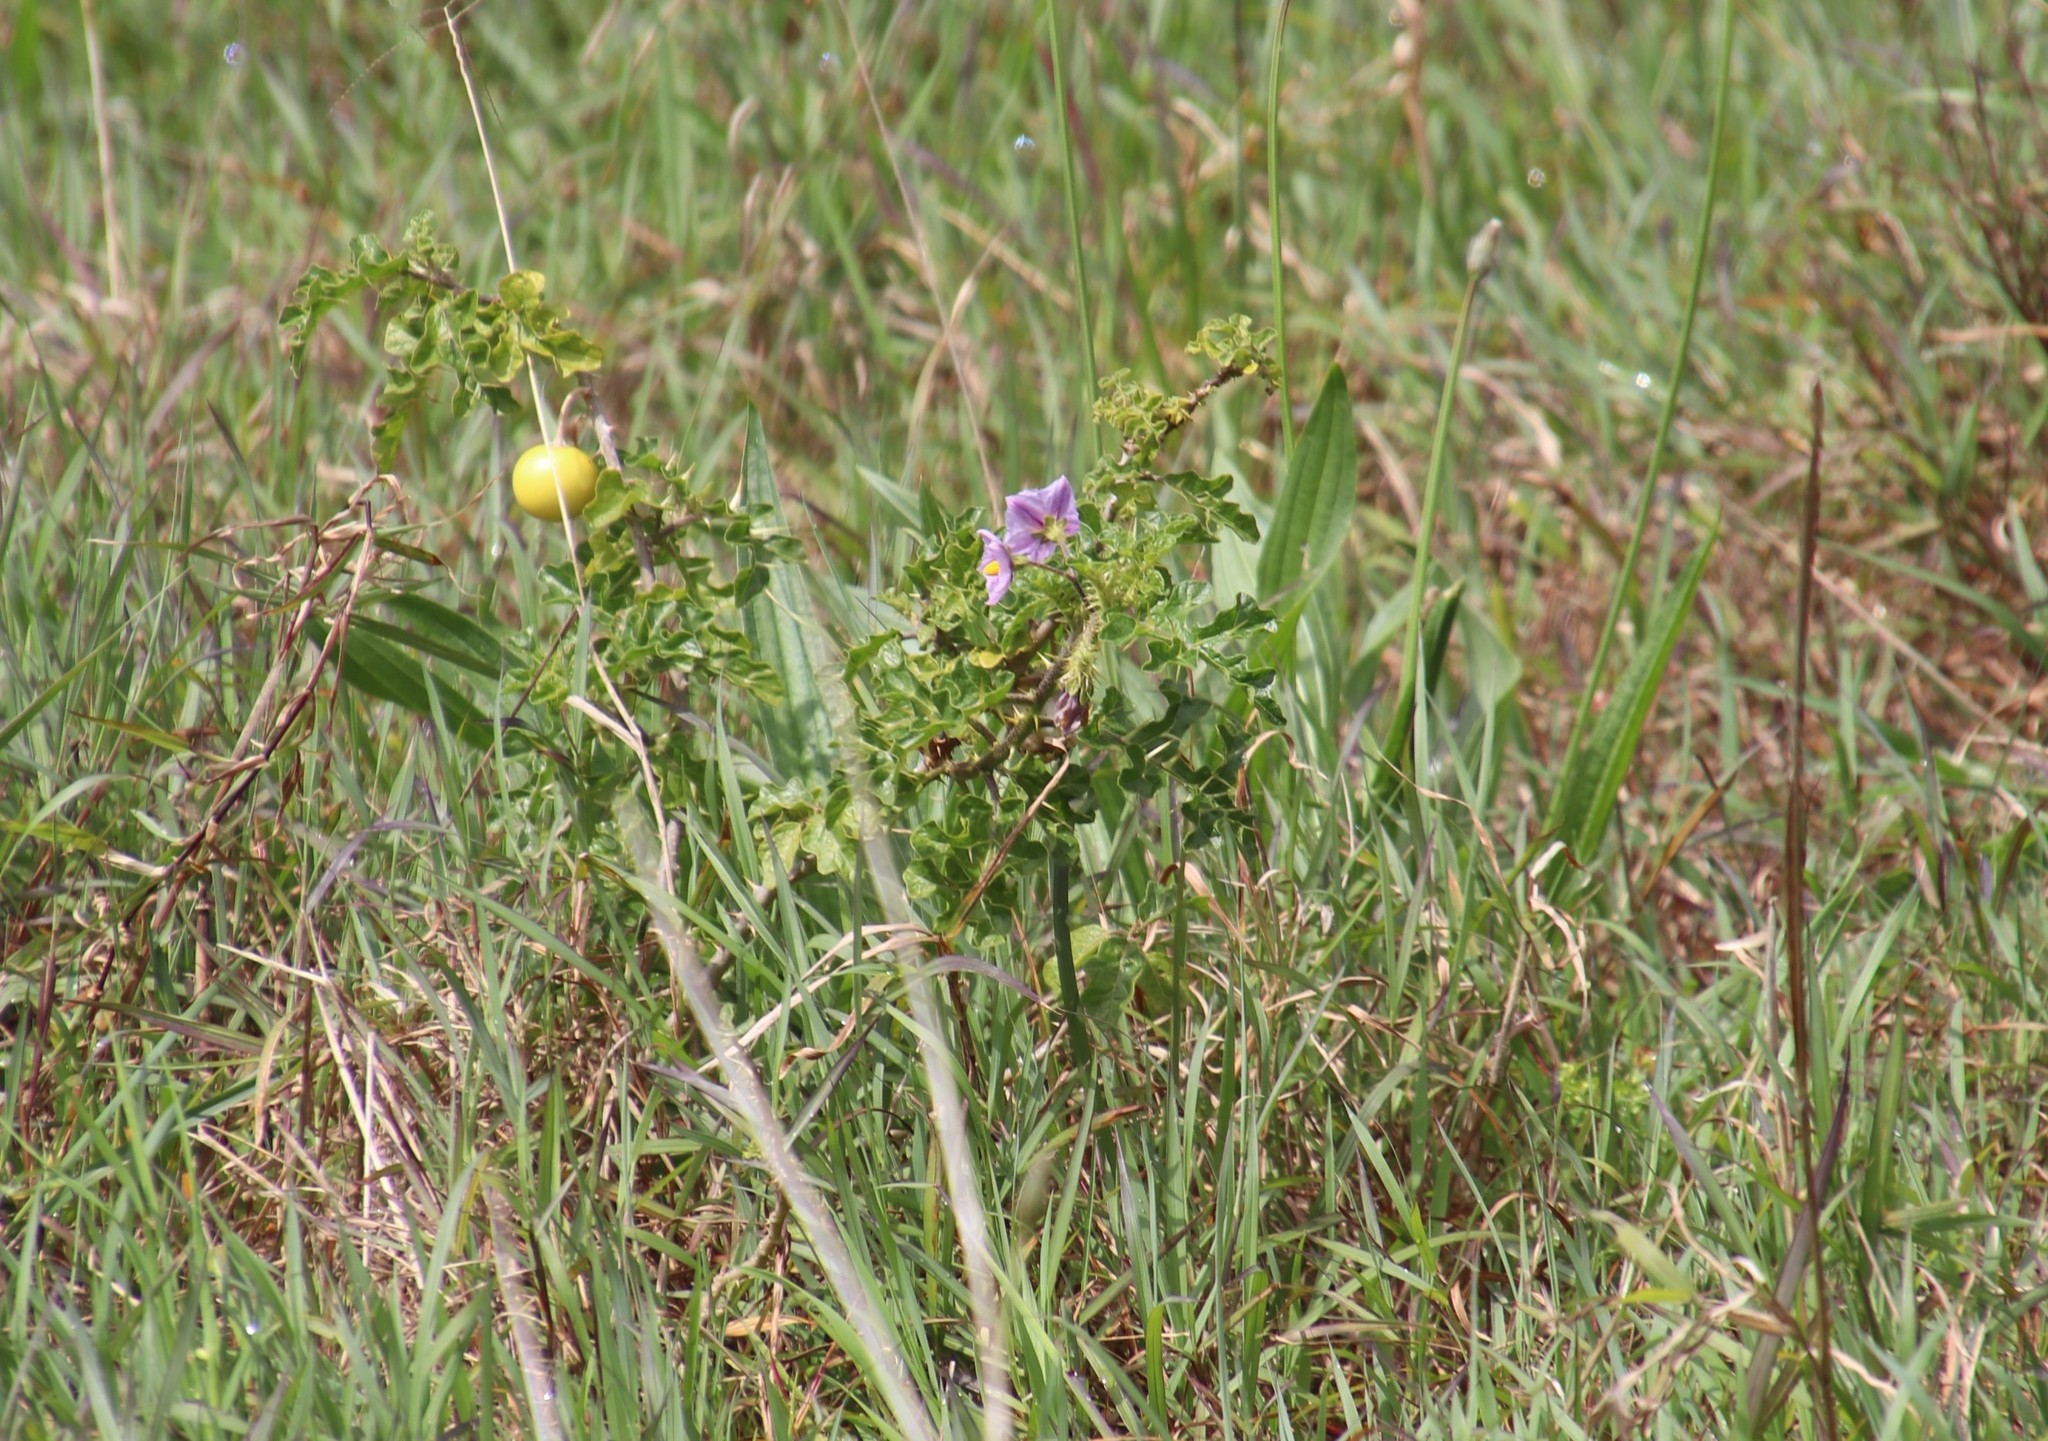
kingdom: Plantae
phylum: Tracheophyta
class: Magnoliopsida
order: Solanales
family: Solanaceae
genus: Solanum
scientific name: Solanum linnaeanum
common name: Nightshade
